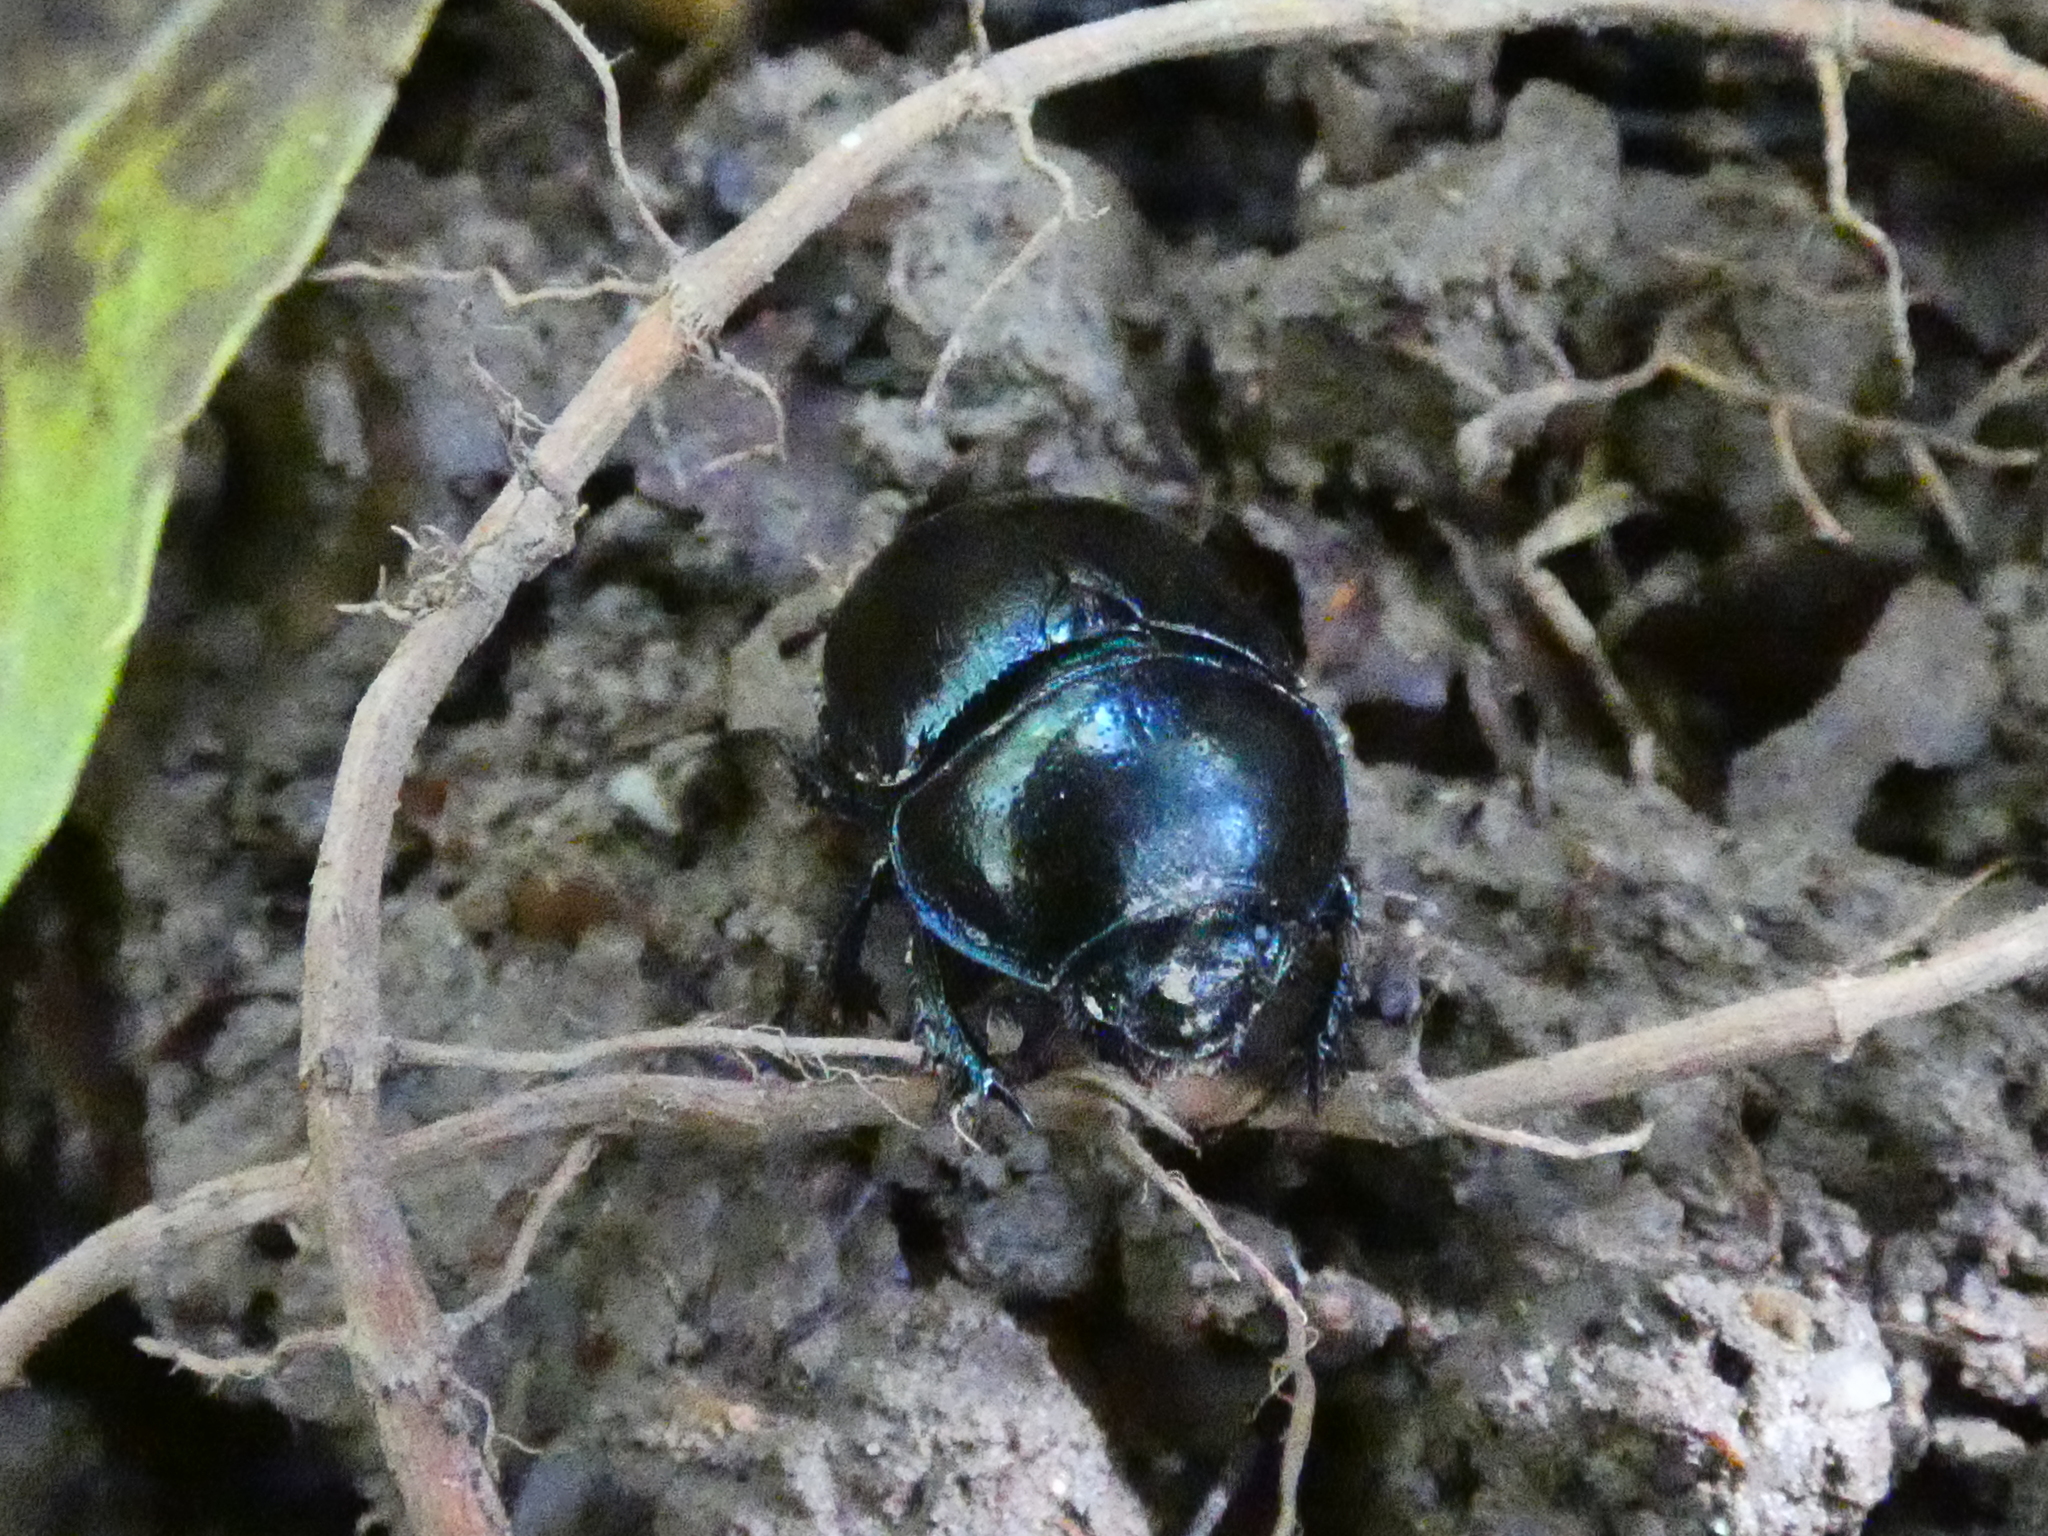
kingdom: Animalia
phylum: Arthropoda
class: Insecta
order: Coleoptera
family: Geotrupidae
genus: Anoplotrupes
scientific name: Anoplotrupes stercorosus
